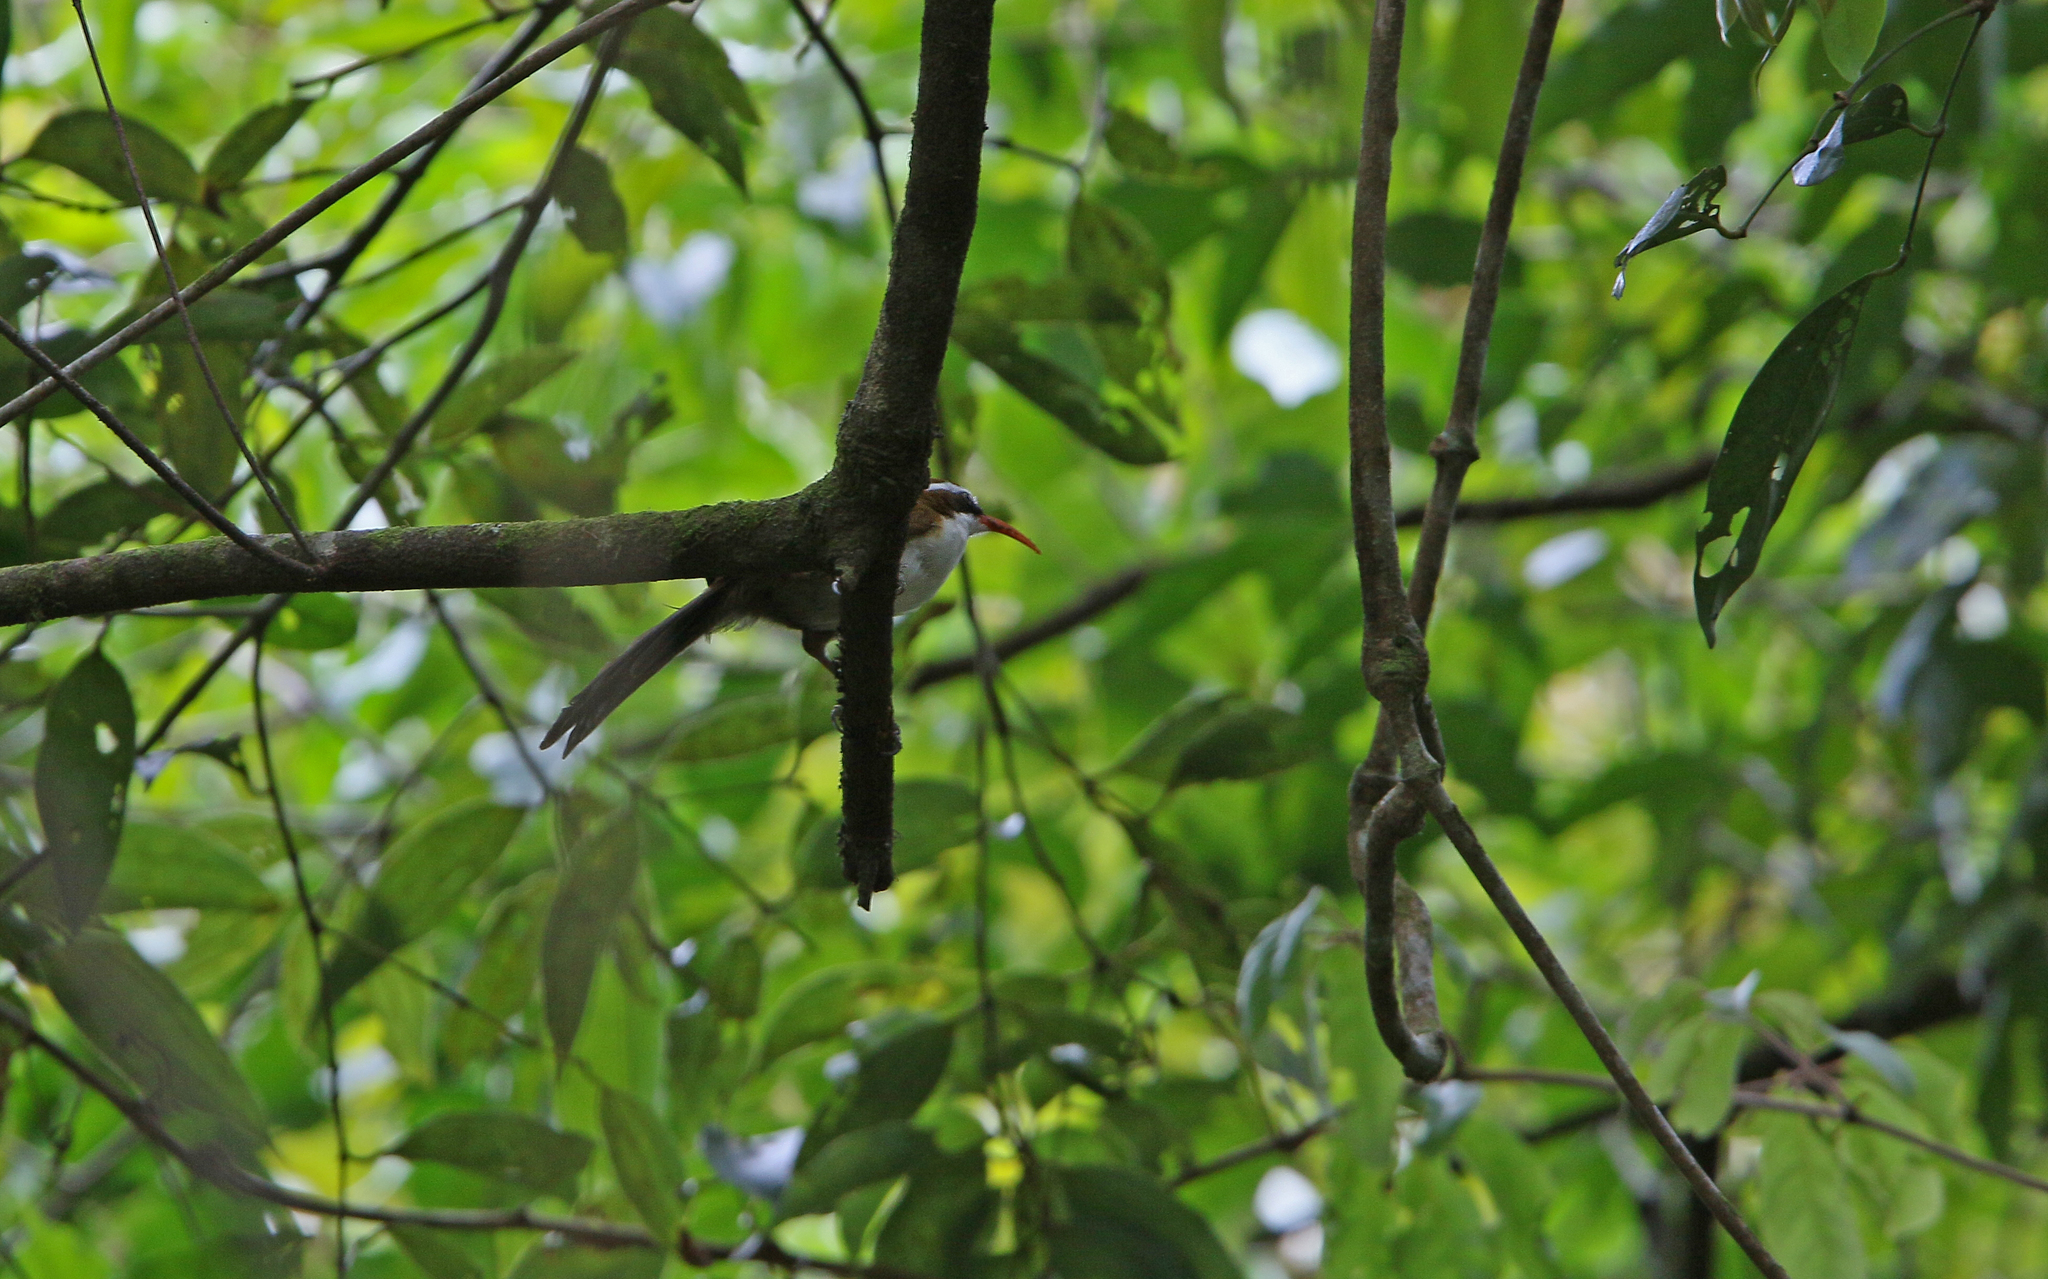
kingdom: Animalia
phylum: Chordata
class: Aves
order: Passeriformes
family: Timaliidae
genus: Pomatorhinus
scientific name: Pomatorhinus ochraceiceps
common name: Red-billed scimitar babbler
